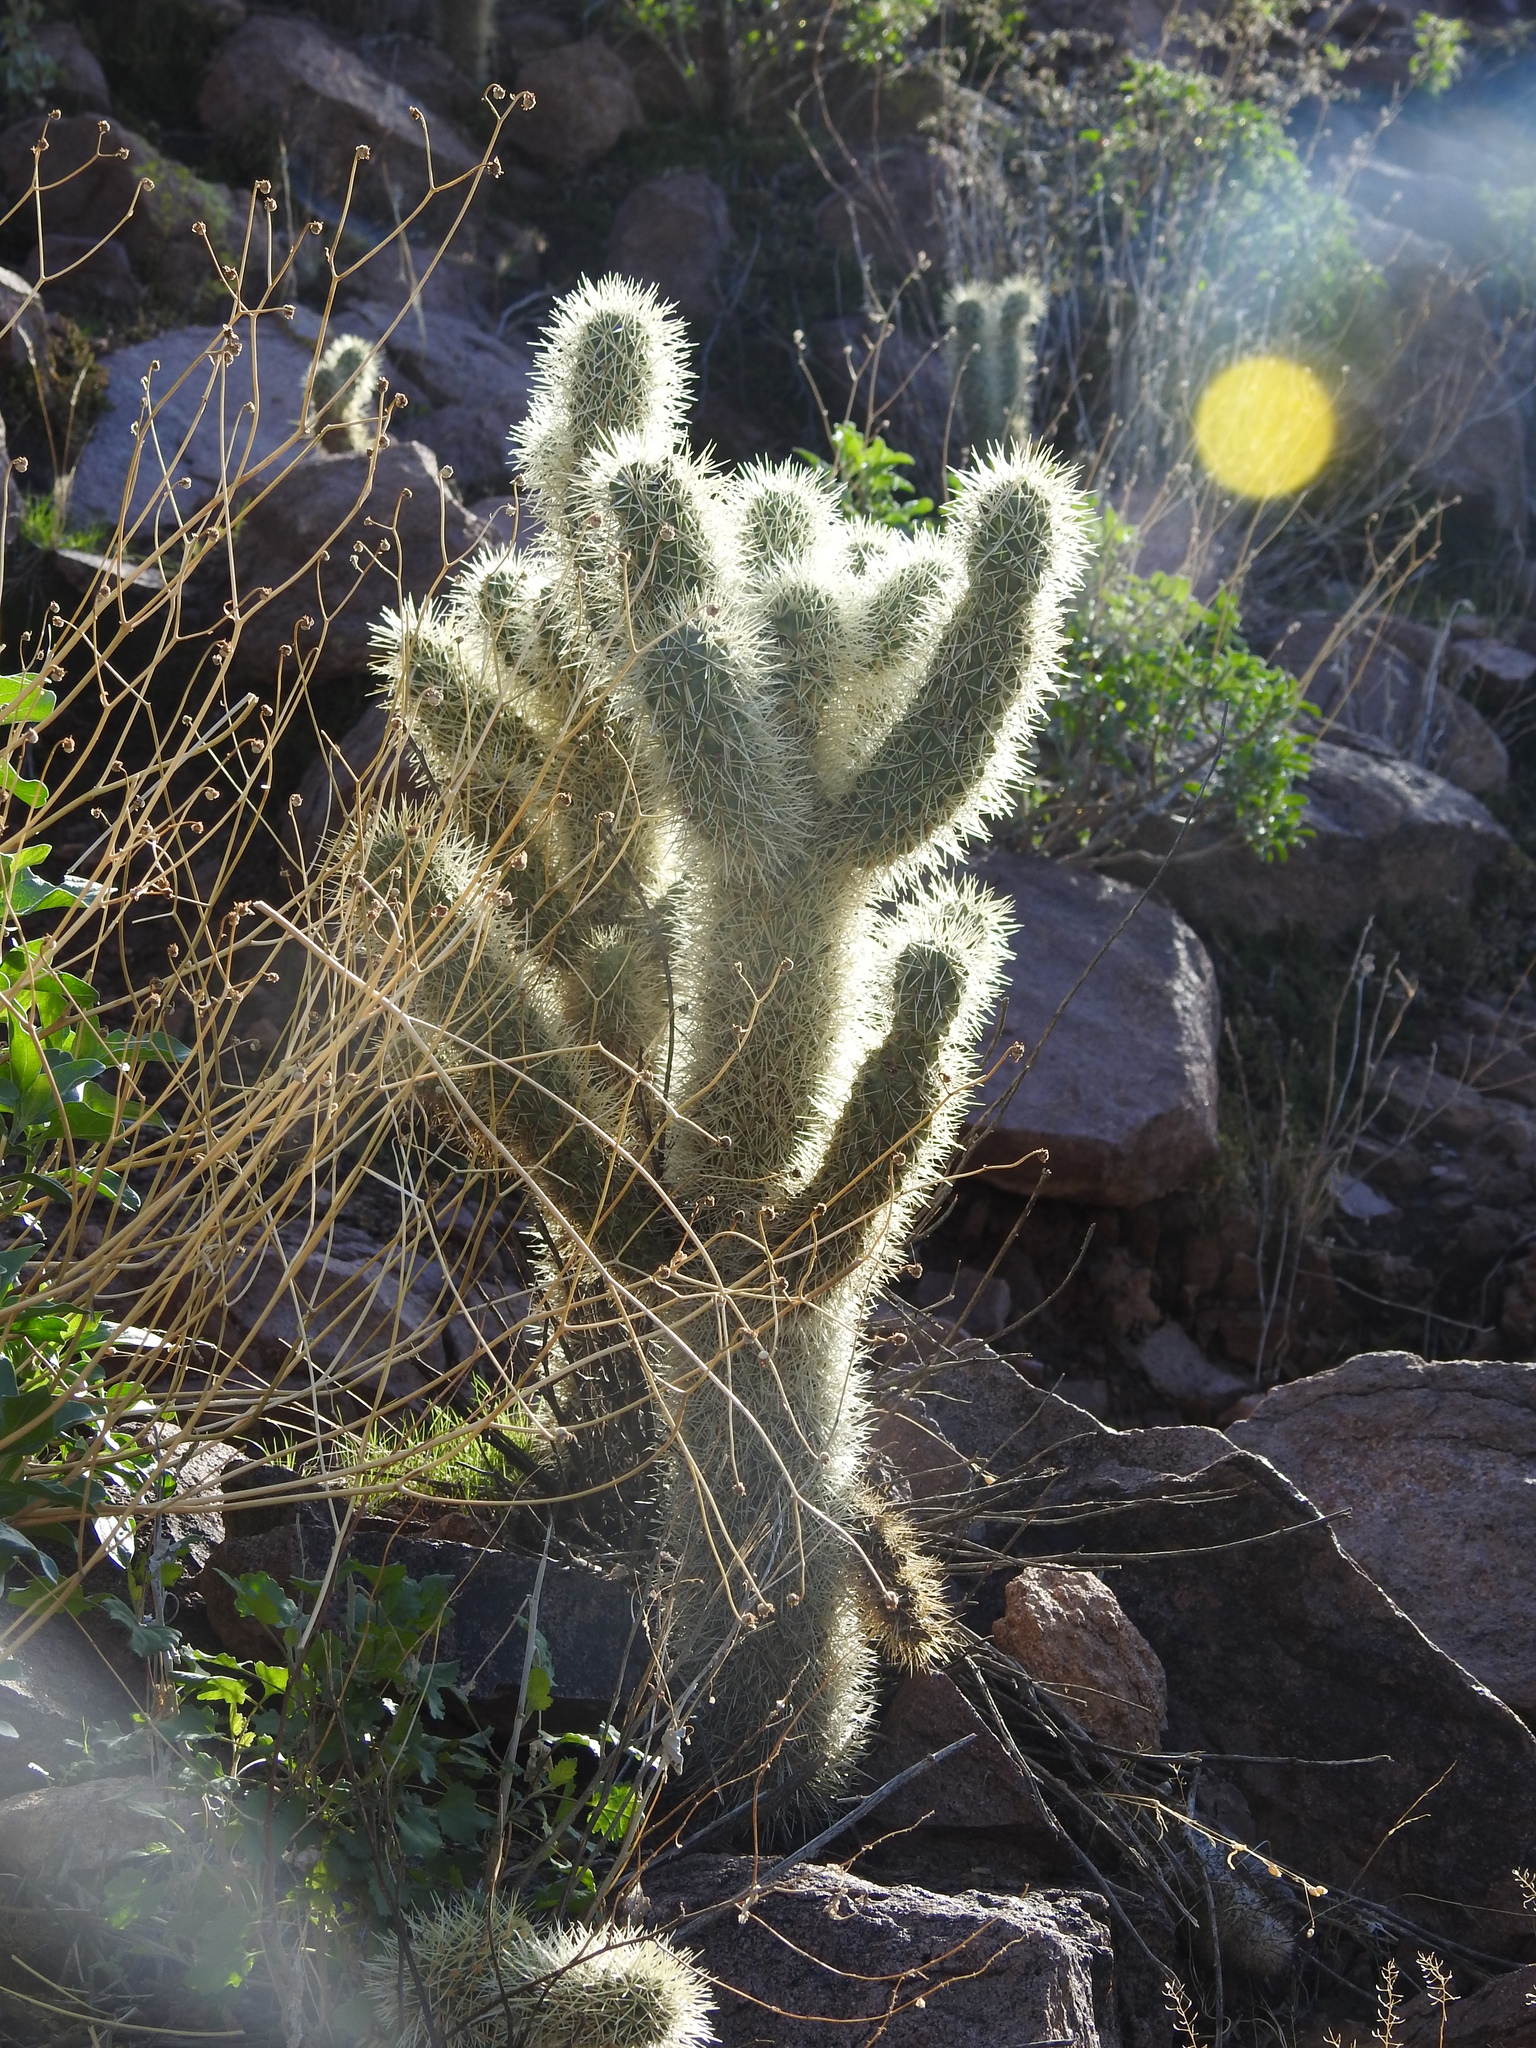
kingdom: Plantae
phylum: Tracheophyta
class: Magnoliopsida
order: Caryophyllales
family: Cactaceae
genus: Cylindropuntia
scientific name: Cylindropuntia fosbergii
